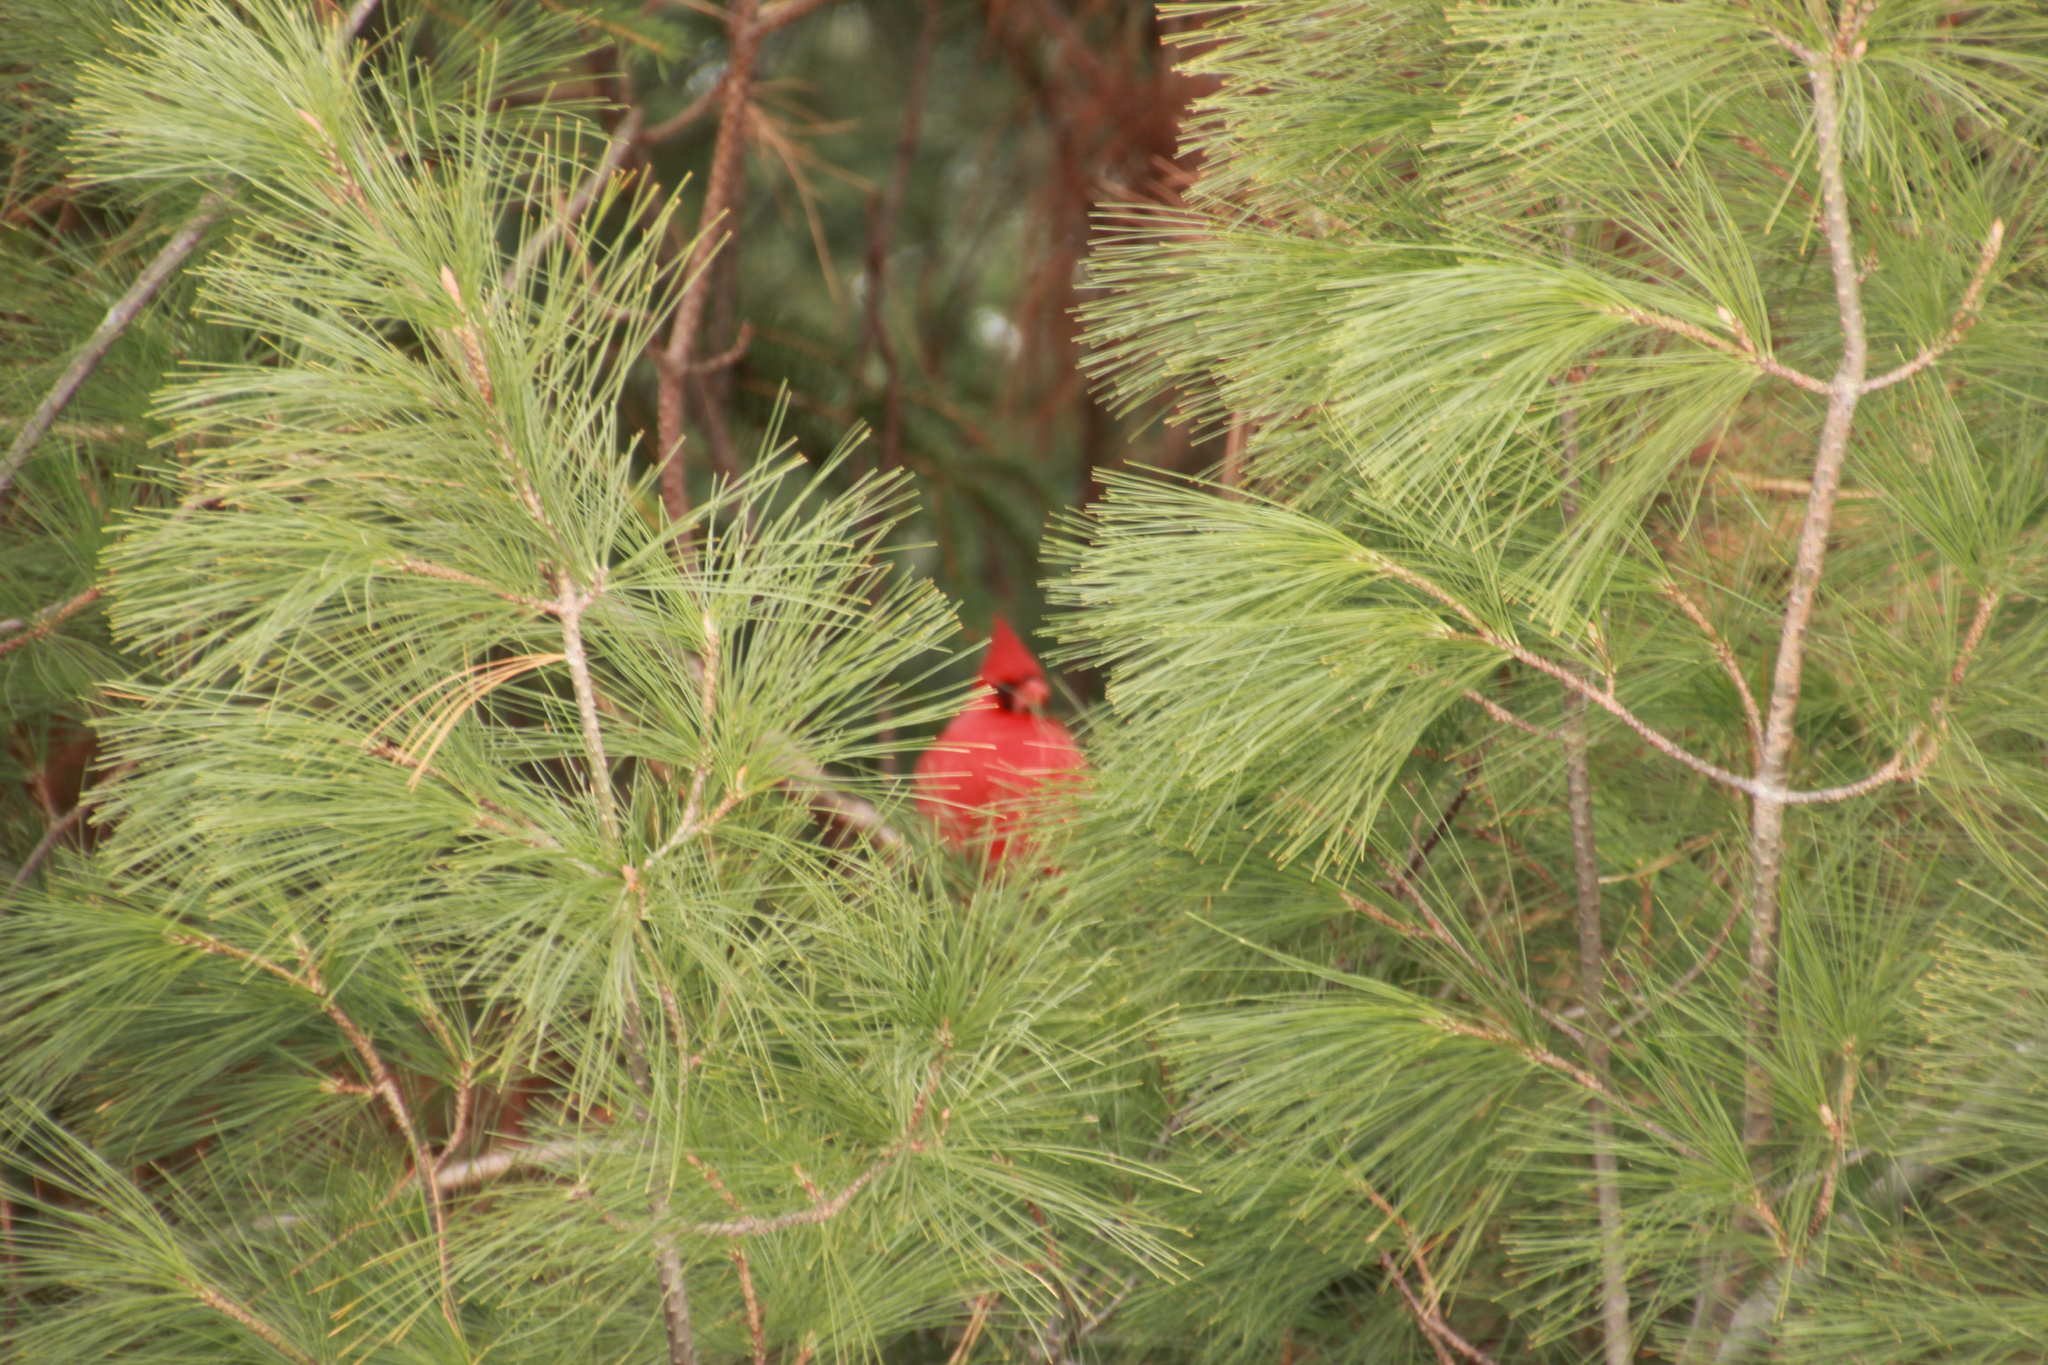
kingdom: Animalia
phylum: Chordata
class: Aves
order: Passeriformes
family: Cardinalidae
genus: Cardinalis
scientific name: Cardinalis cardinalis
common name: Northern cardinal
